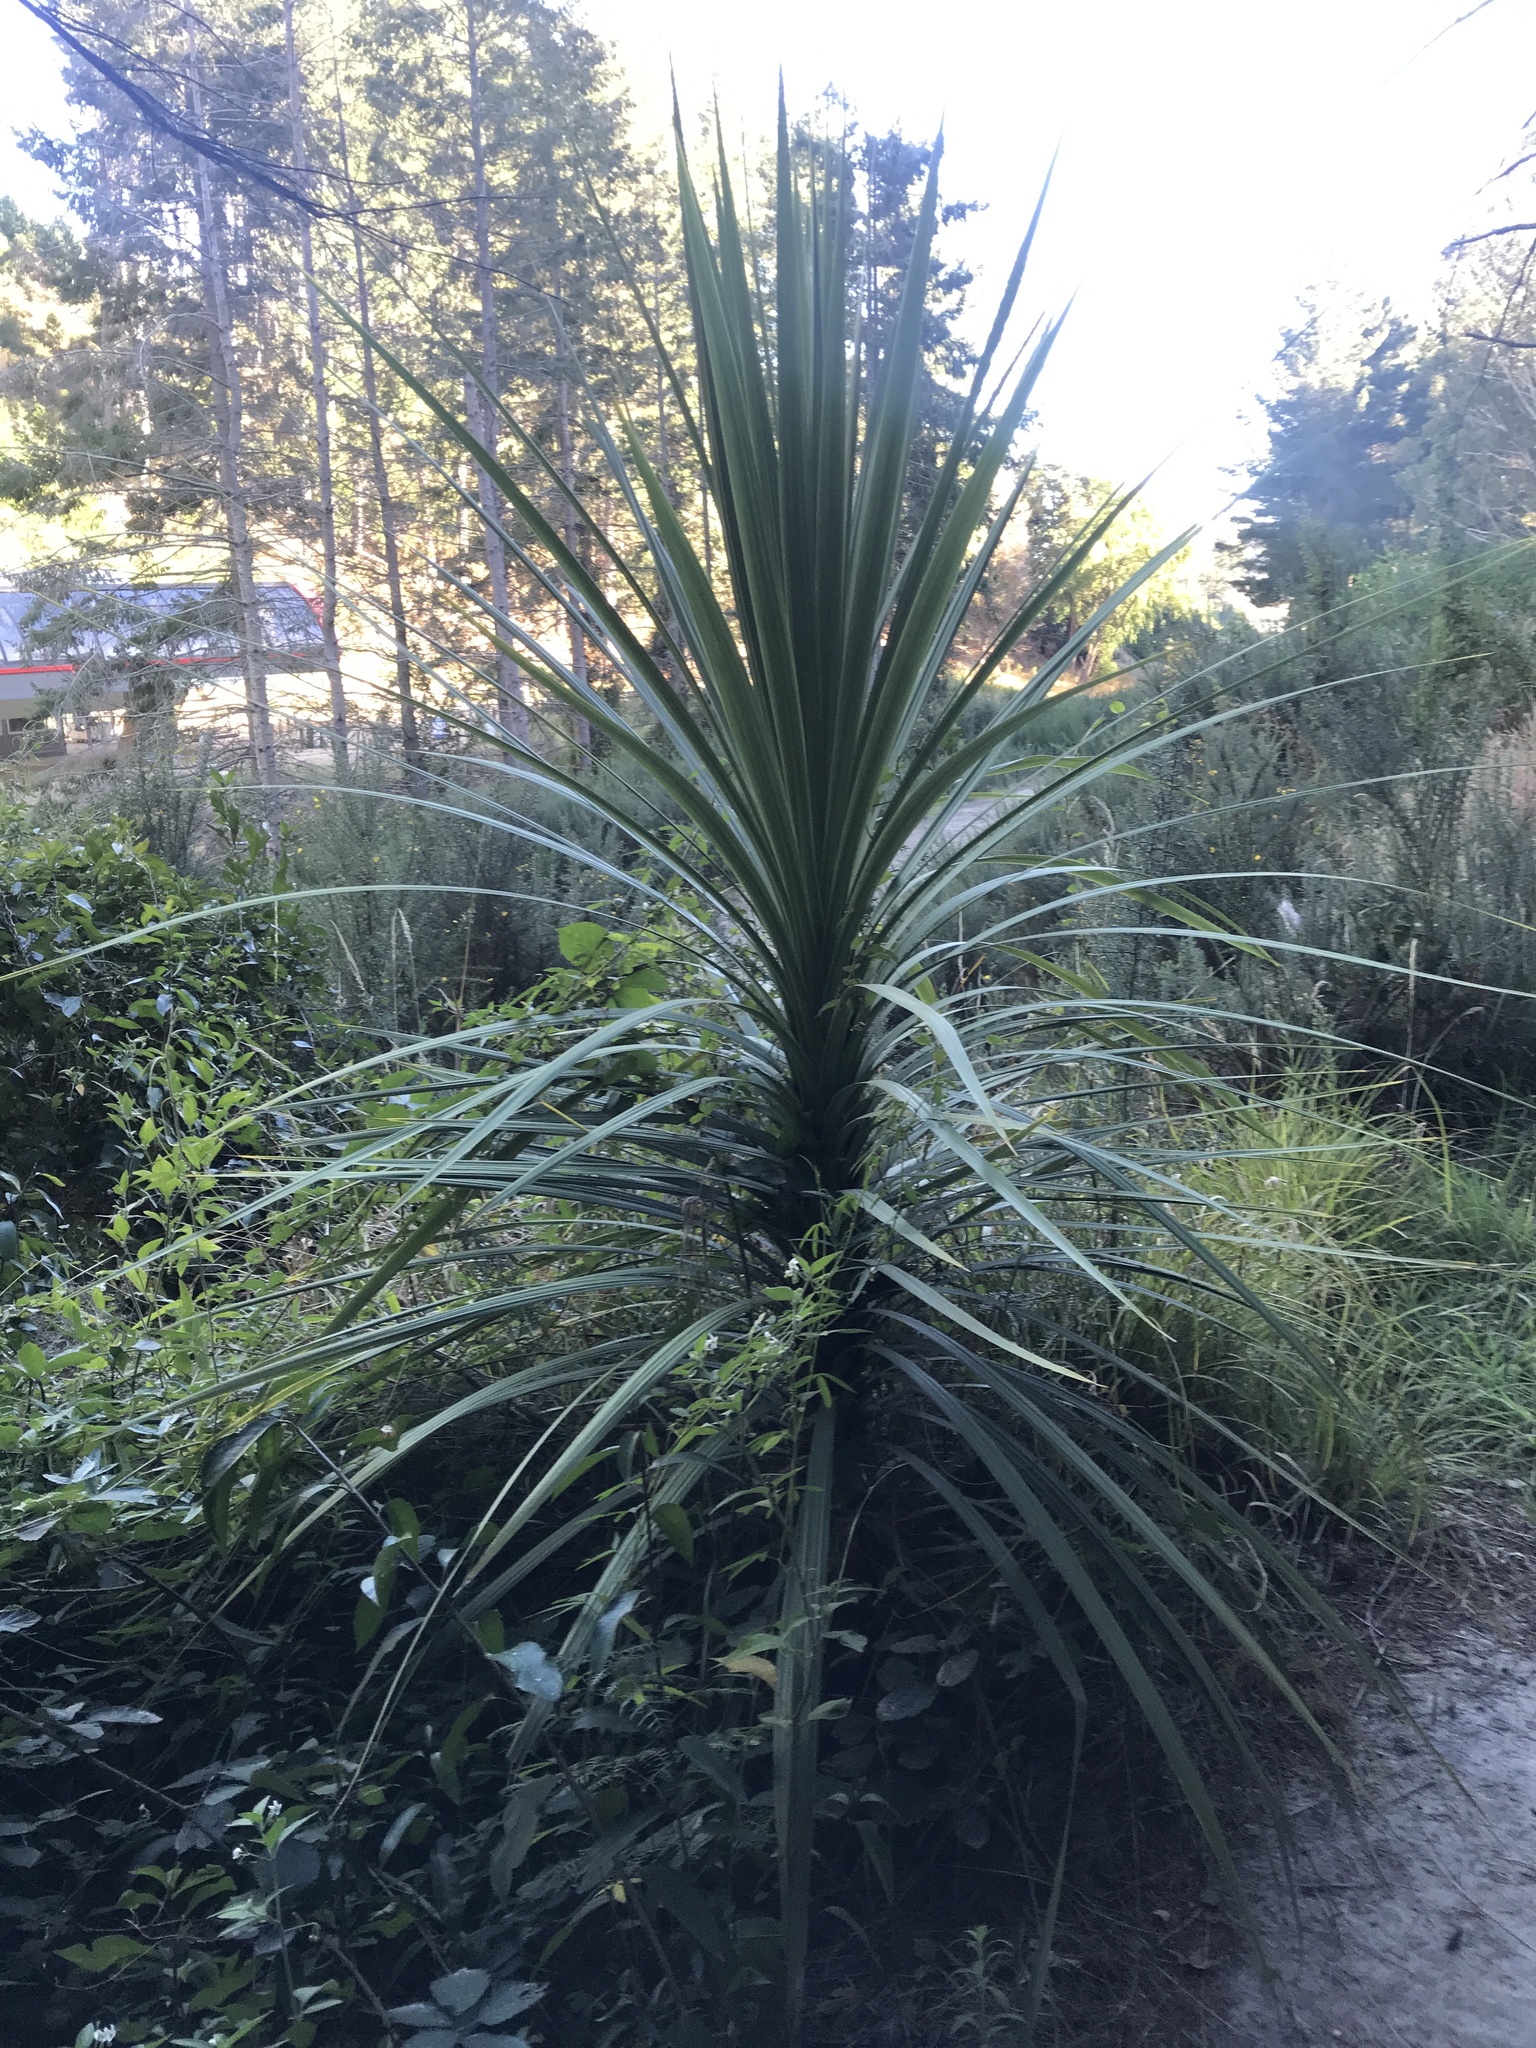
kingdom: Plantae
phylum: Tracheophyta
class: Liliopsida
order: Asparagales
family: Asparagaceae
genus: Cordyline
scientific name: Cordyline australis
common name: Cabbage-palm
